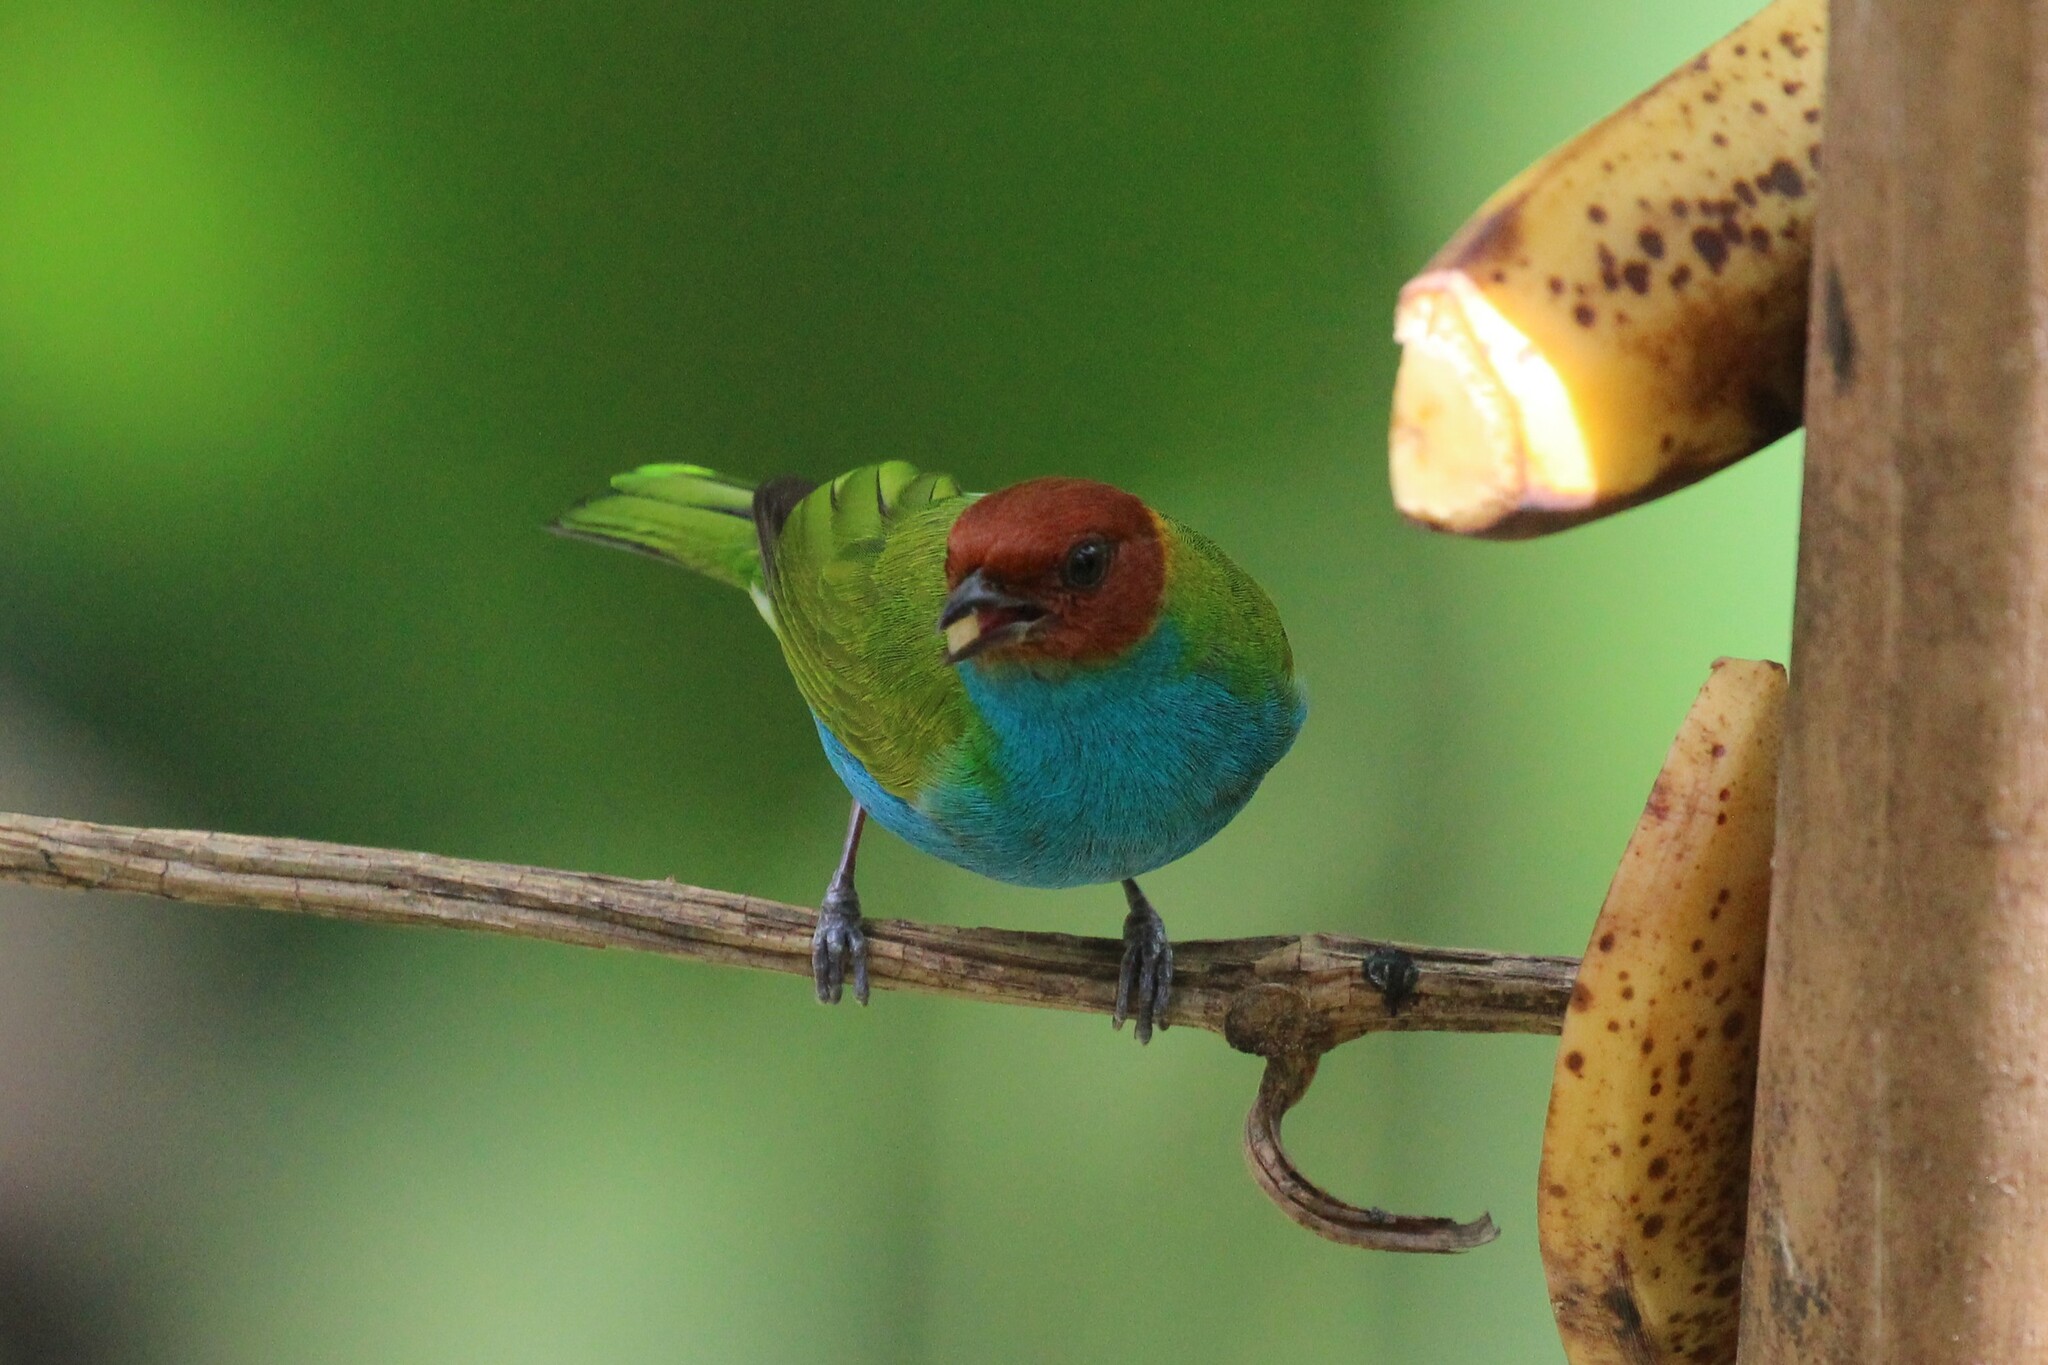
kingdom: Animalia
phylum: Chordata
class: Aves
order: Passeriformes
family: Thraupidae
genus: Tangara
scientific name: Tangara gyrola
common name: Bay-headed tanager
